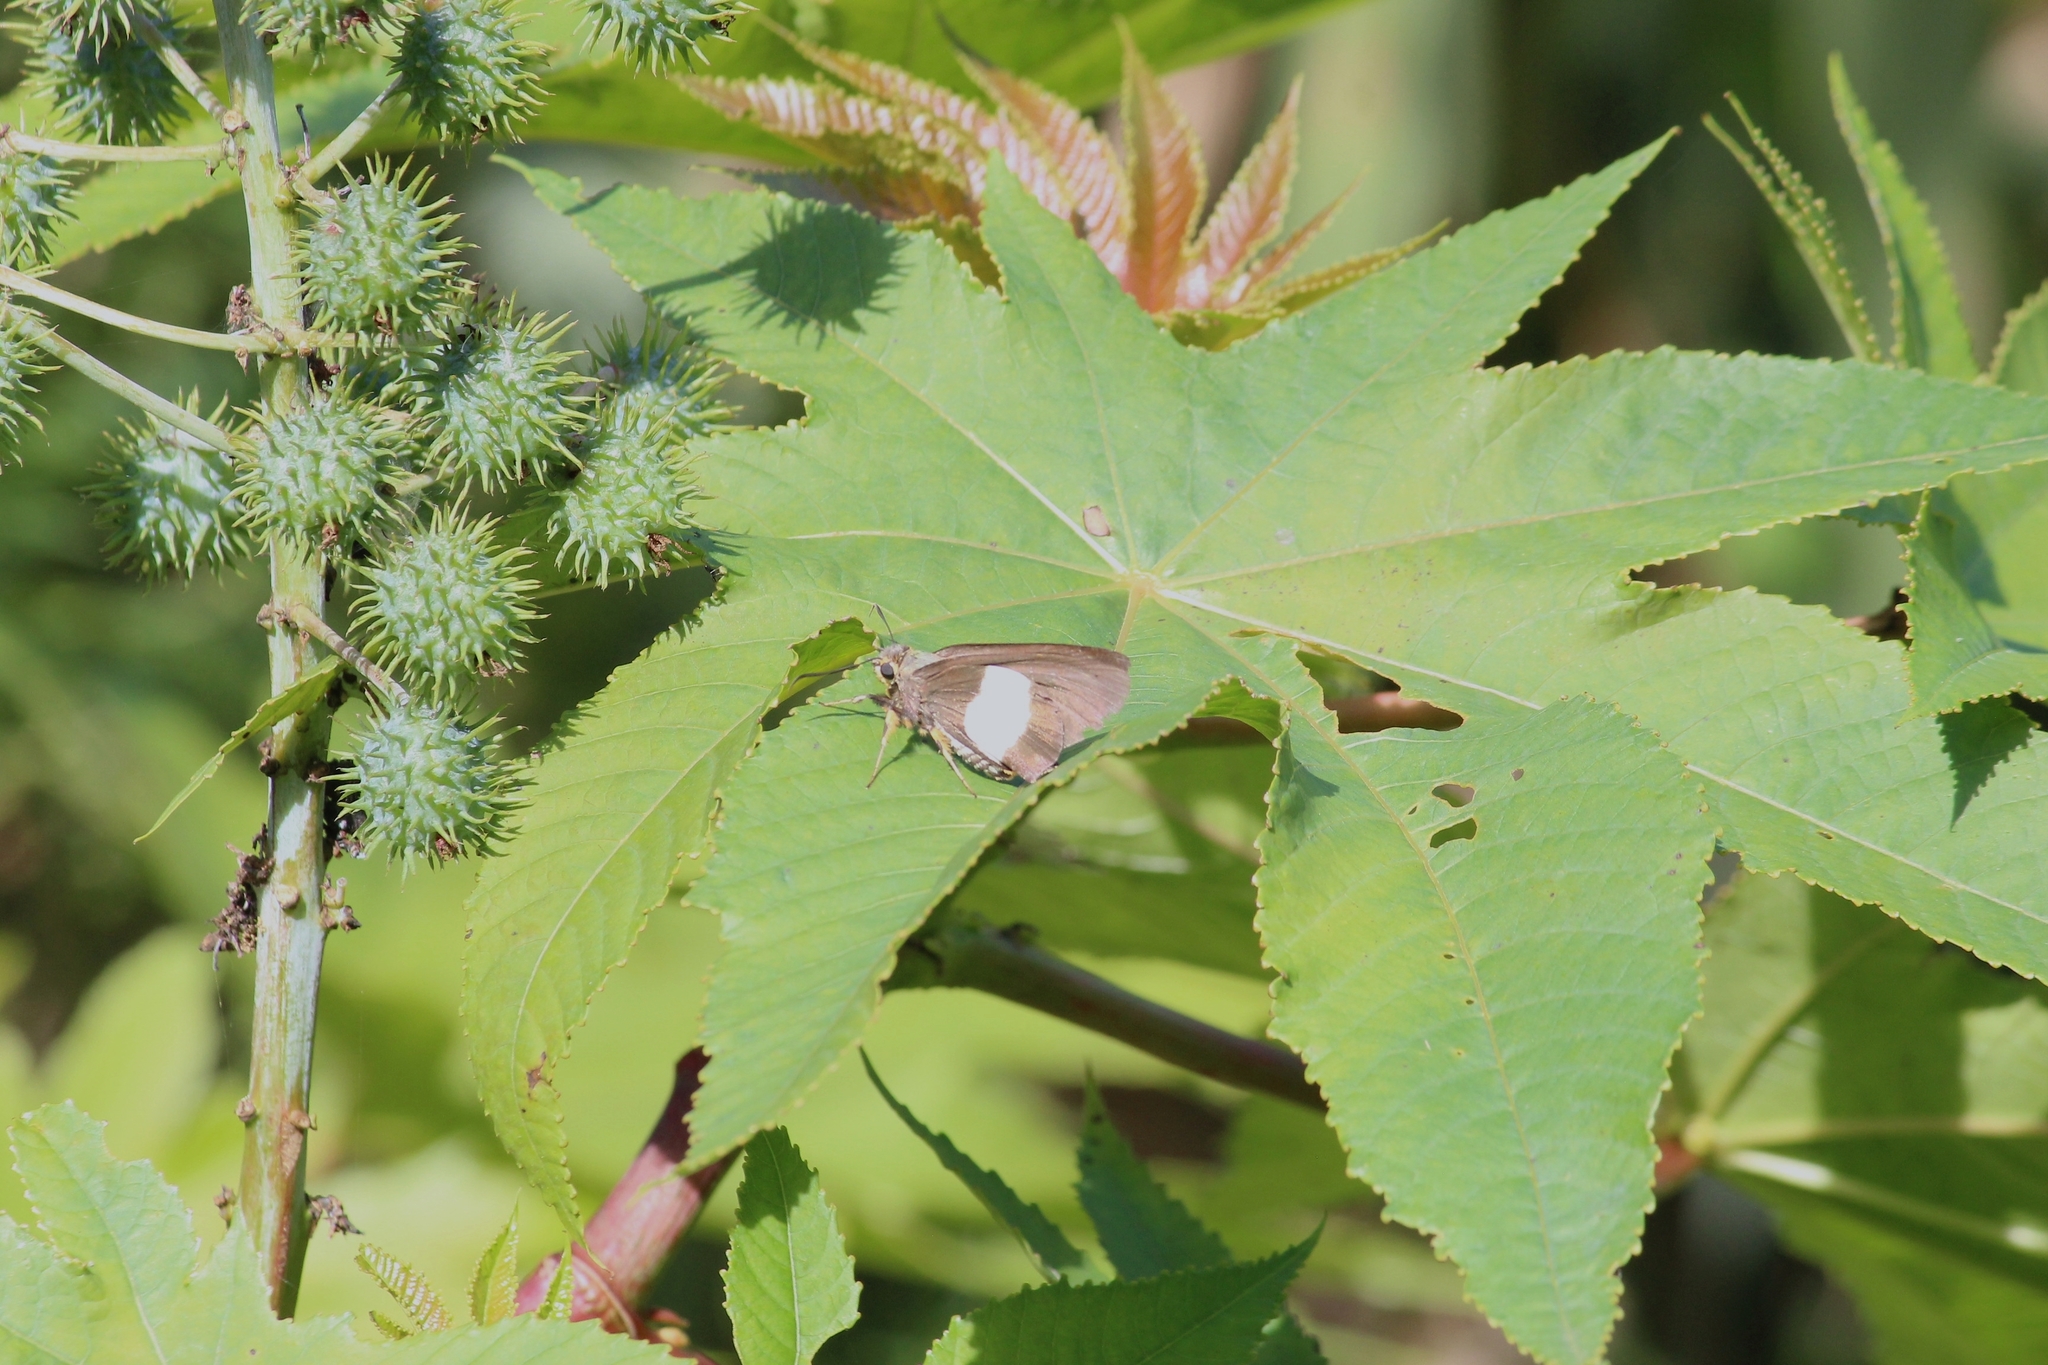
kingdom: Animalia
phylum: Arthropoda
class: Insecta
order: Lepidoptera
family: Hesperiidae
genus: Coeliades
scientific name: Coeliades forestan
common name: Striped policeman
